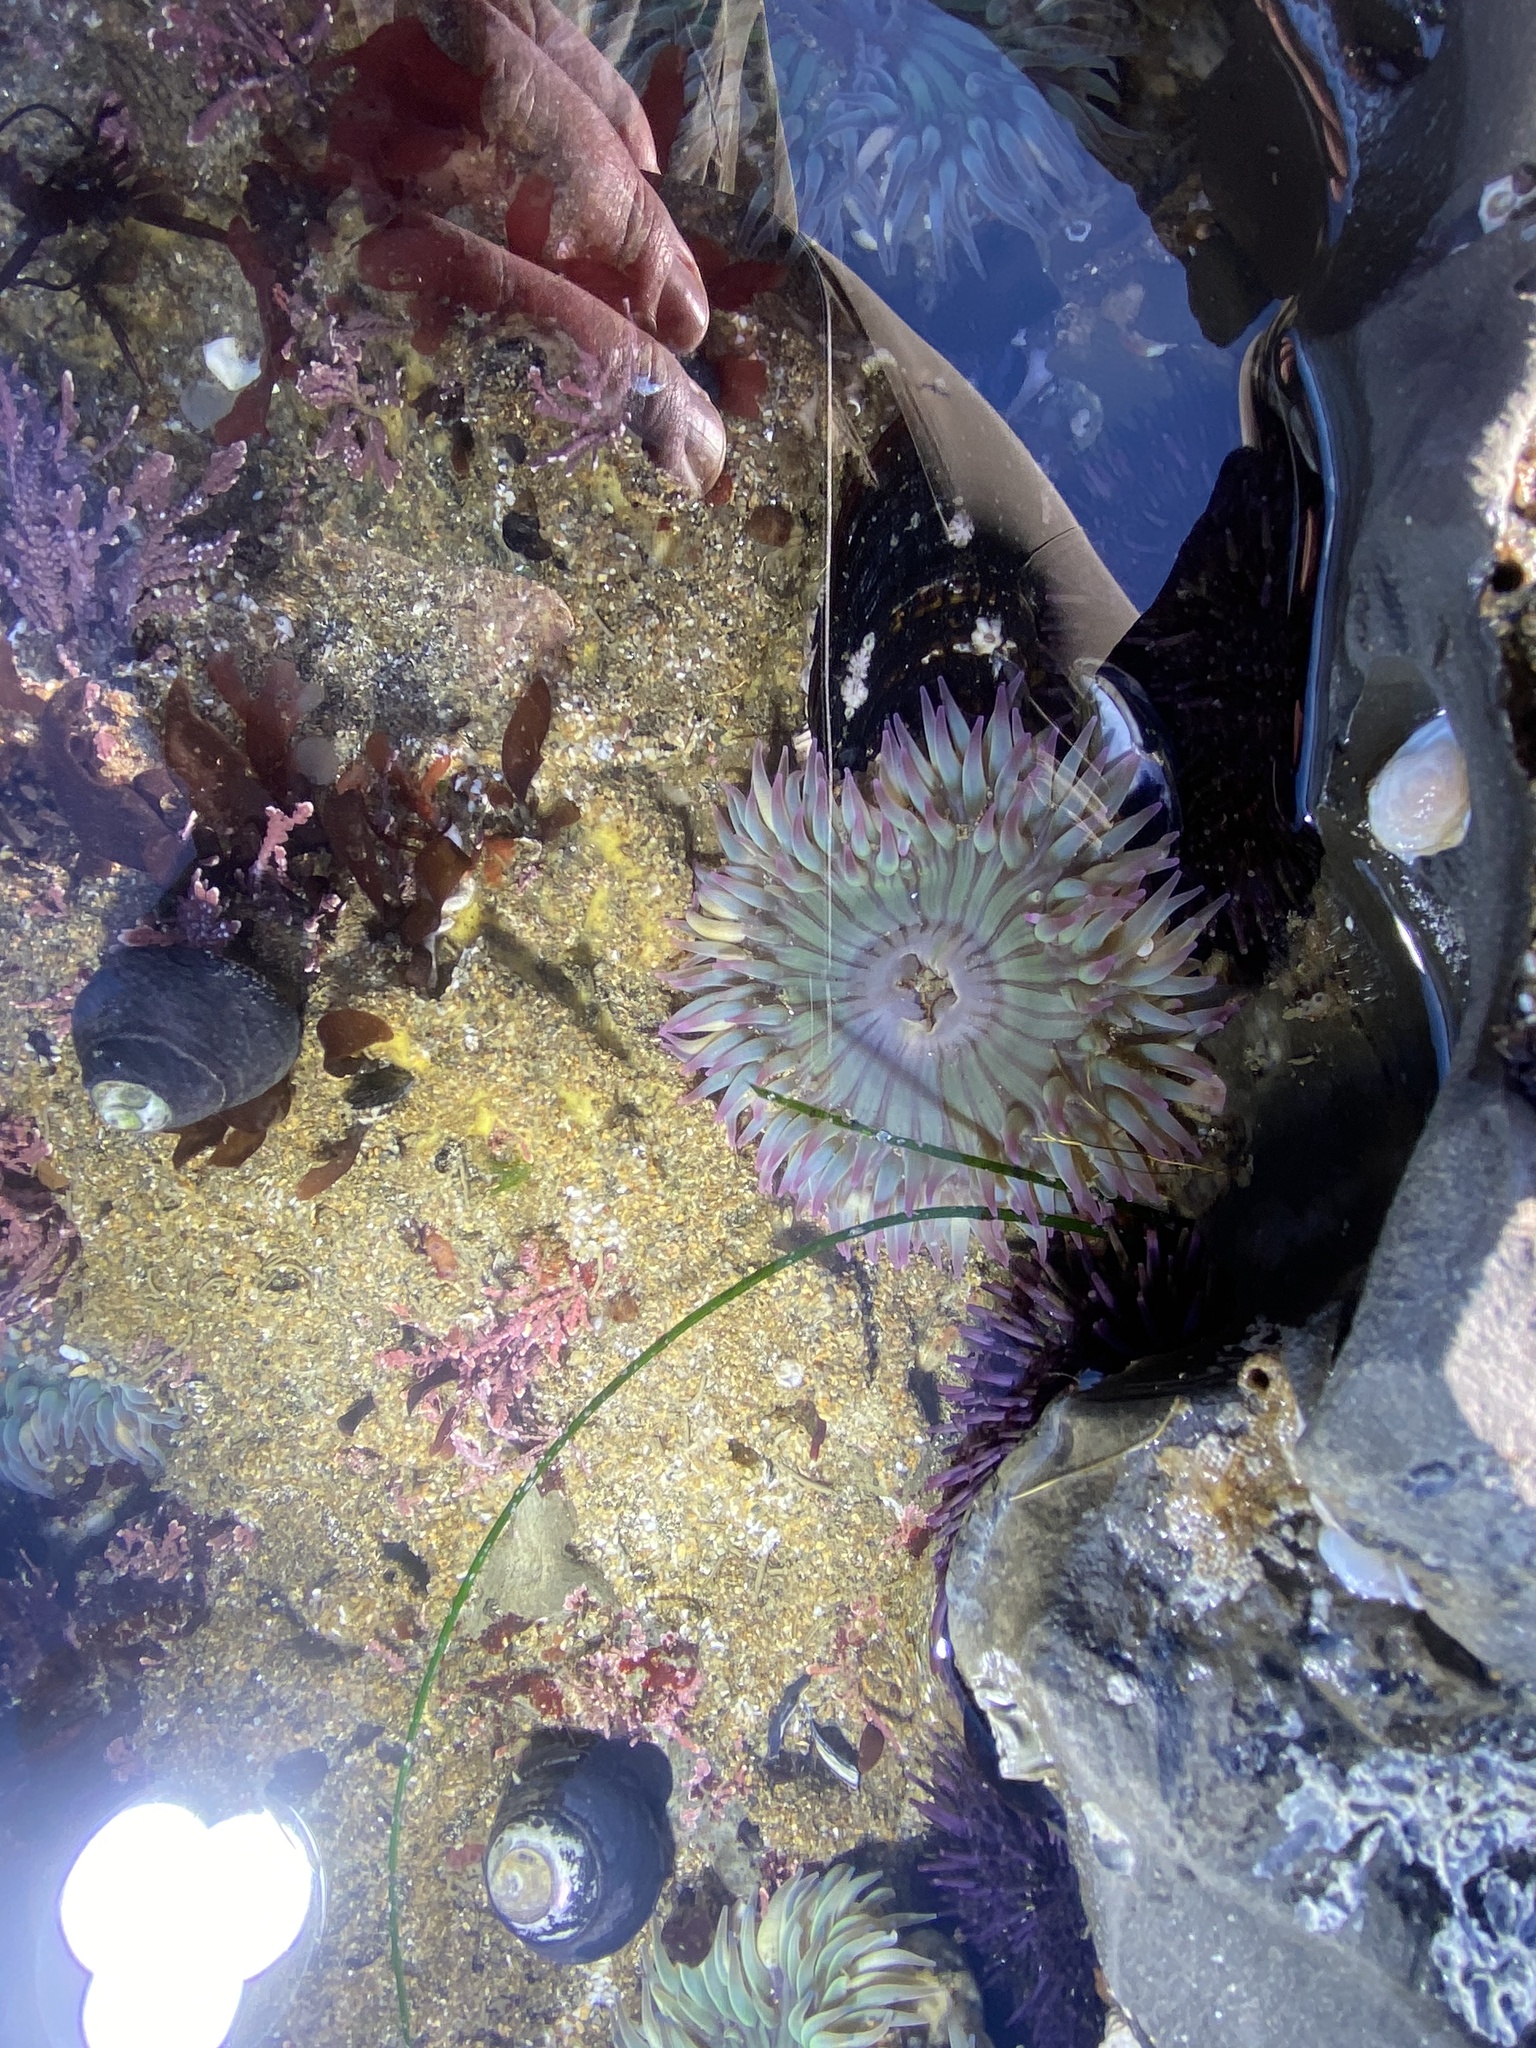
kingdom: Animalia
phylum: Cnidaria
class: Anthozoa
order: Actiniaria
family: Actiniidae
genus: Anthopleura
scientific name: Anthopleura sola
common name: Sun anemone
